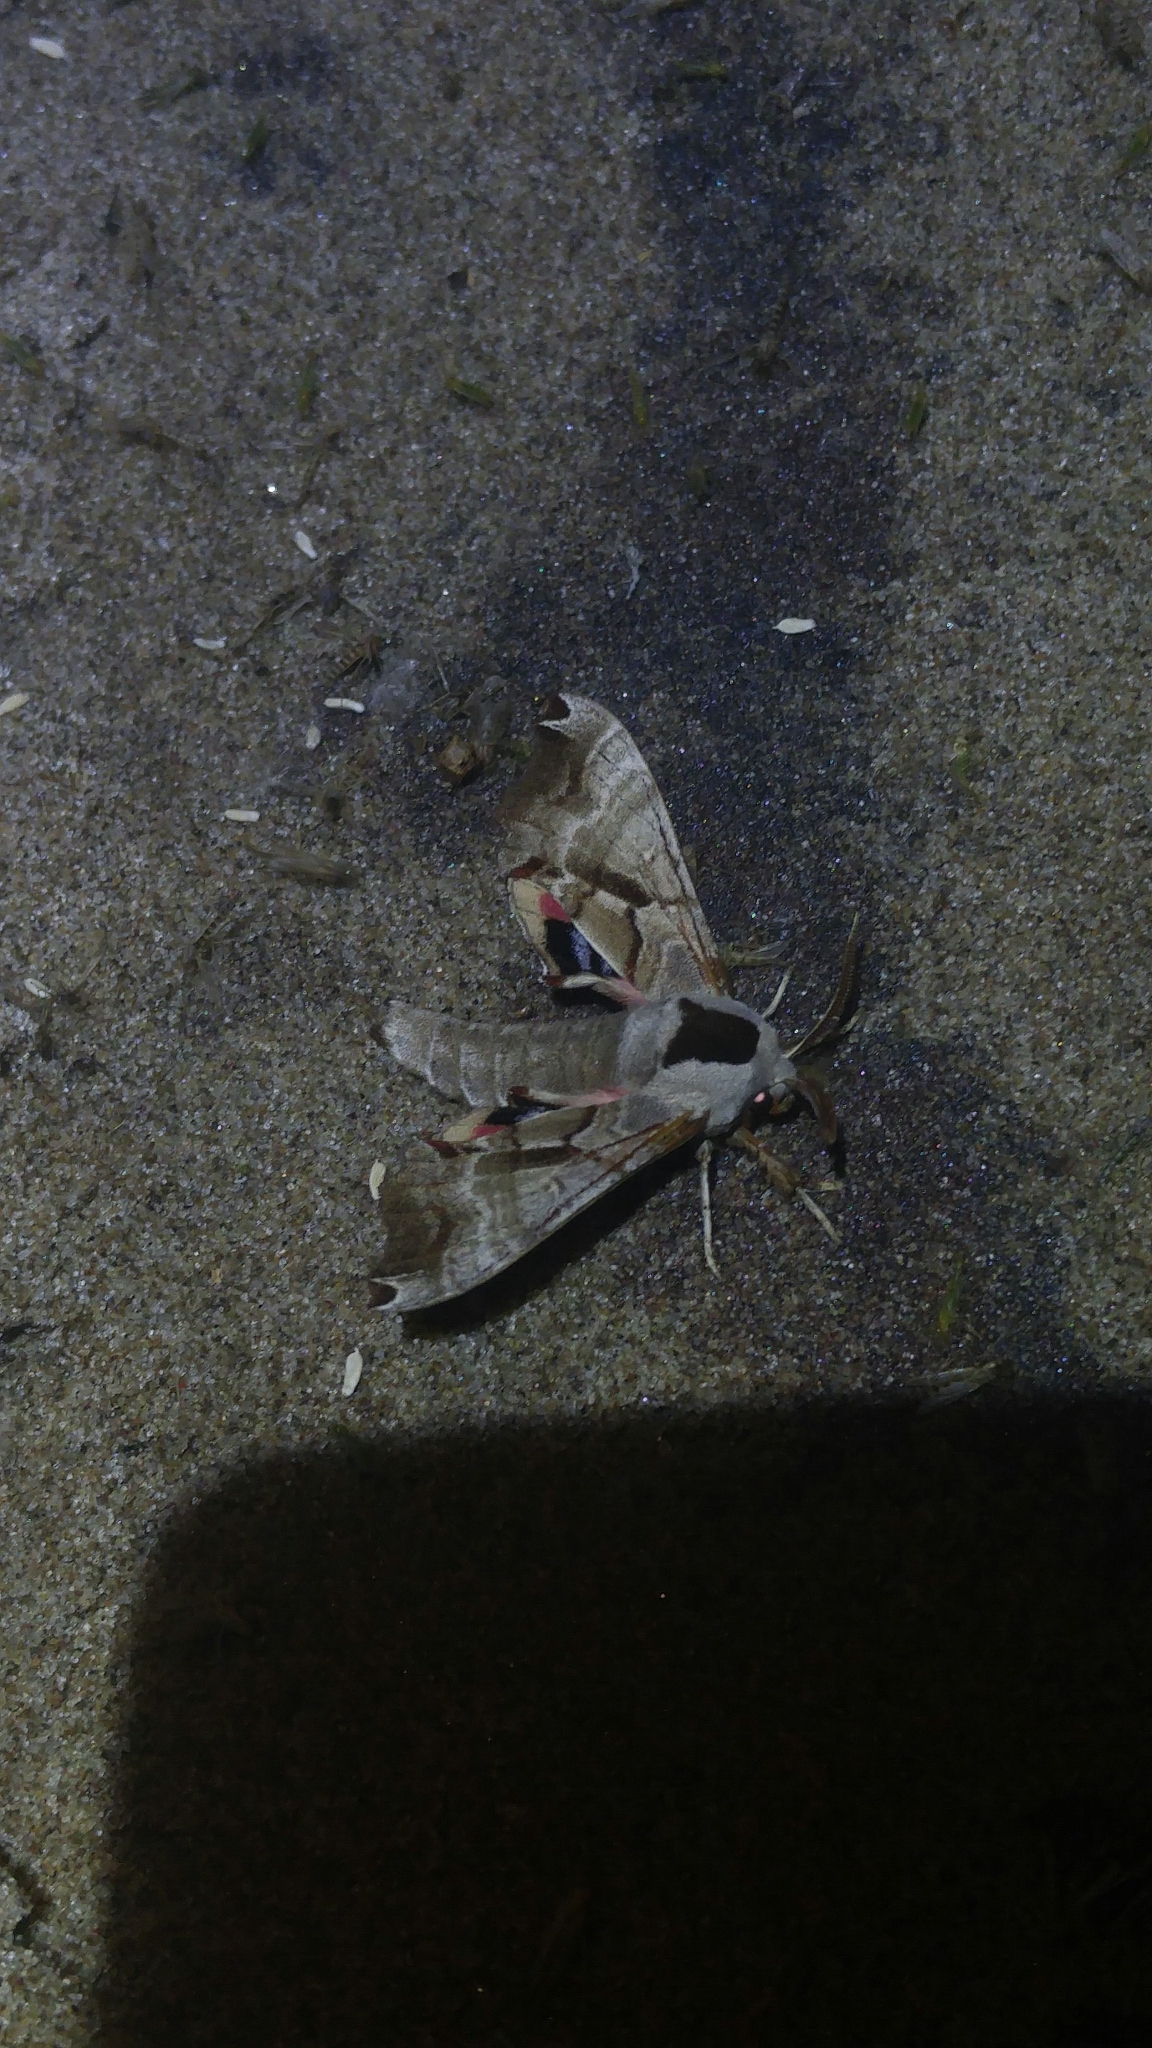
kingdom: Animalia
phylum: Arthropoda
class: Insecta
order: Lepidoptera
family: Sphingidae
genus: Smerinthus
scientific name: Smerinthus jamaicensis
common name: Twin spotted sphinx
